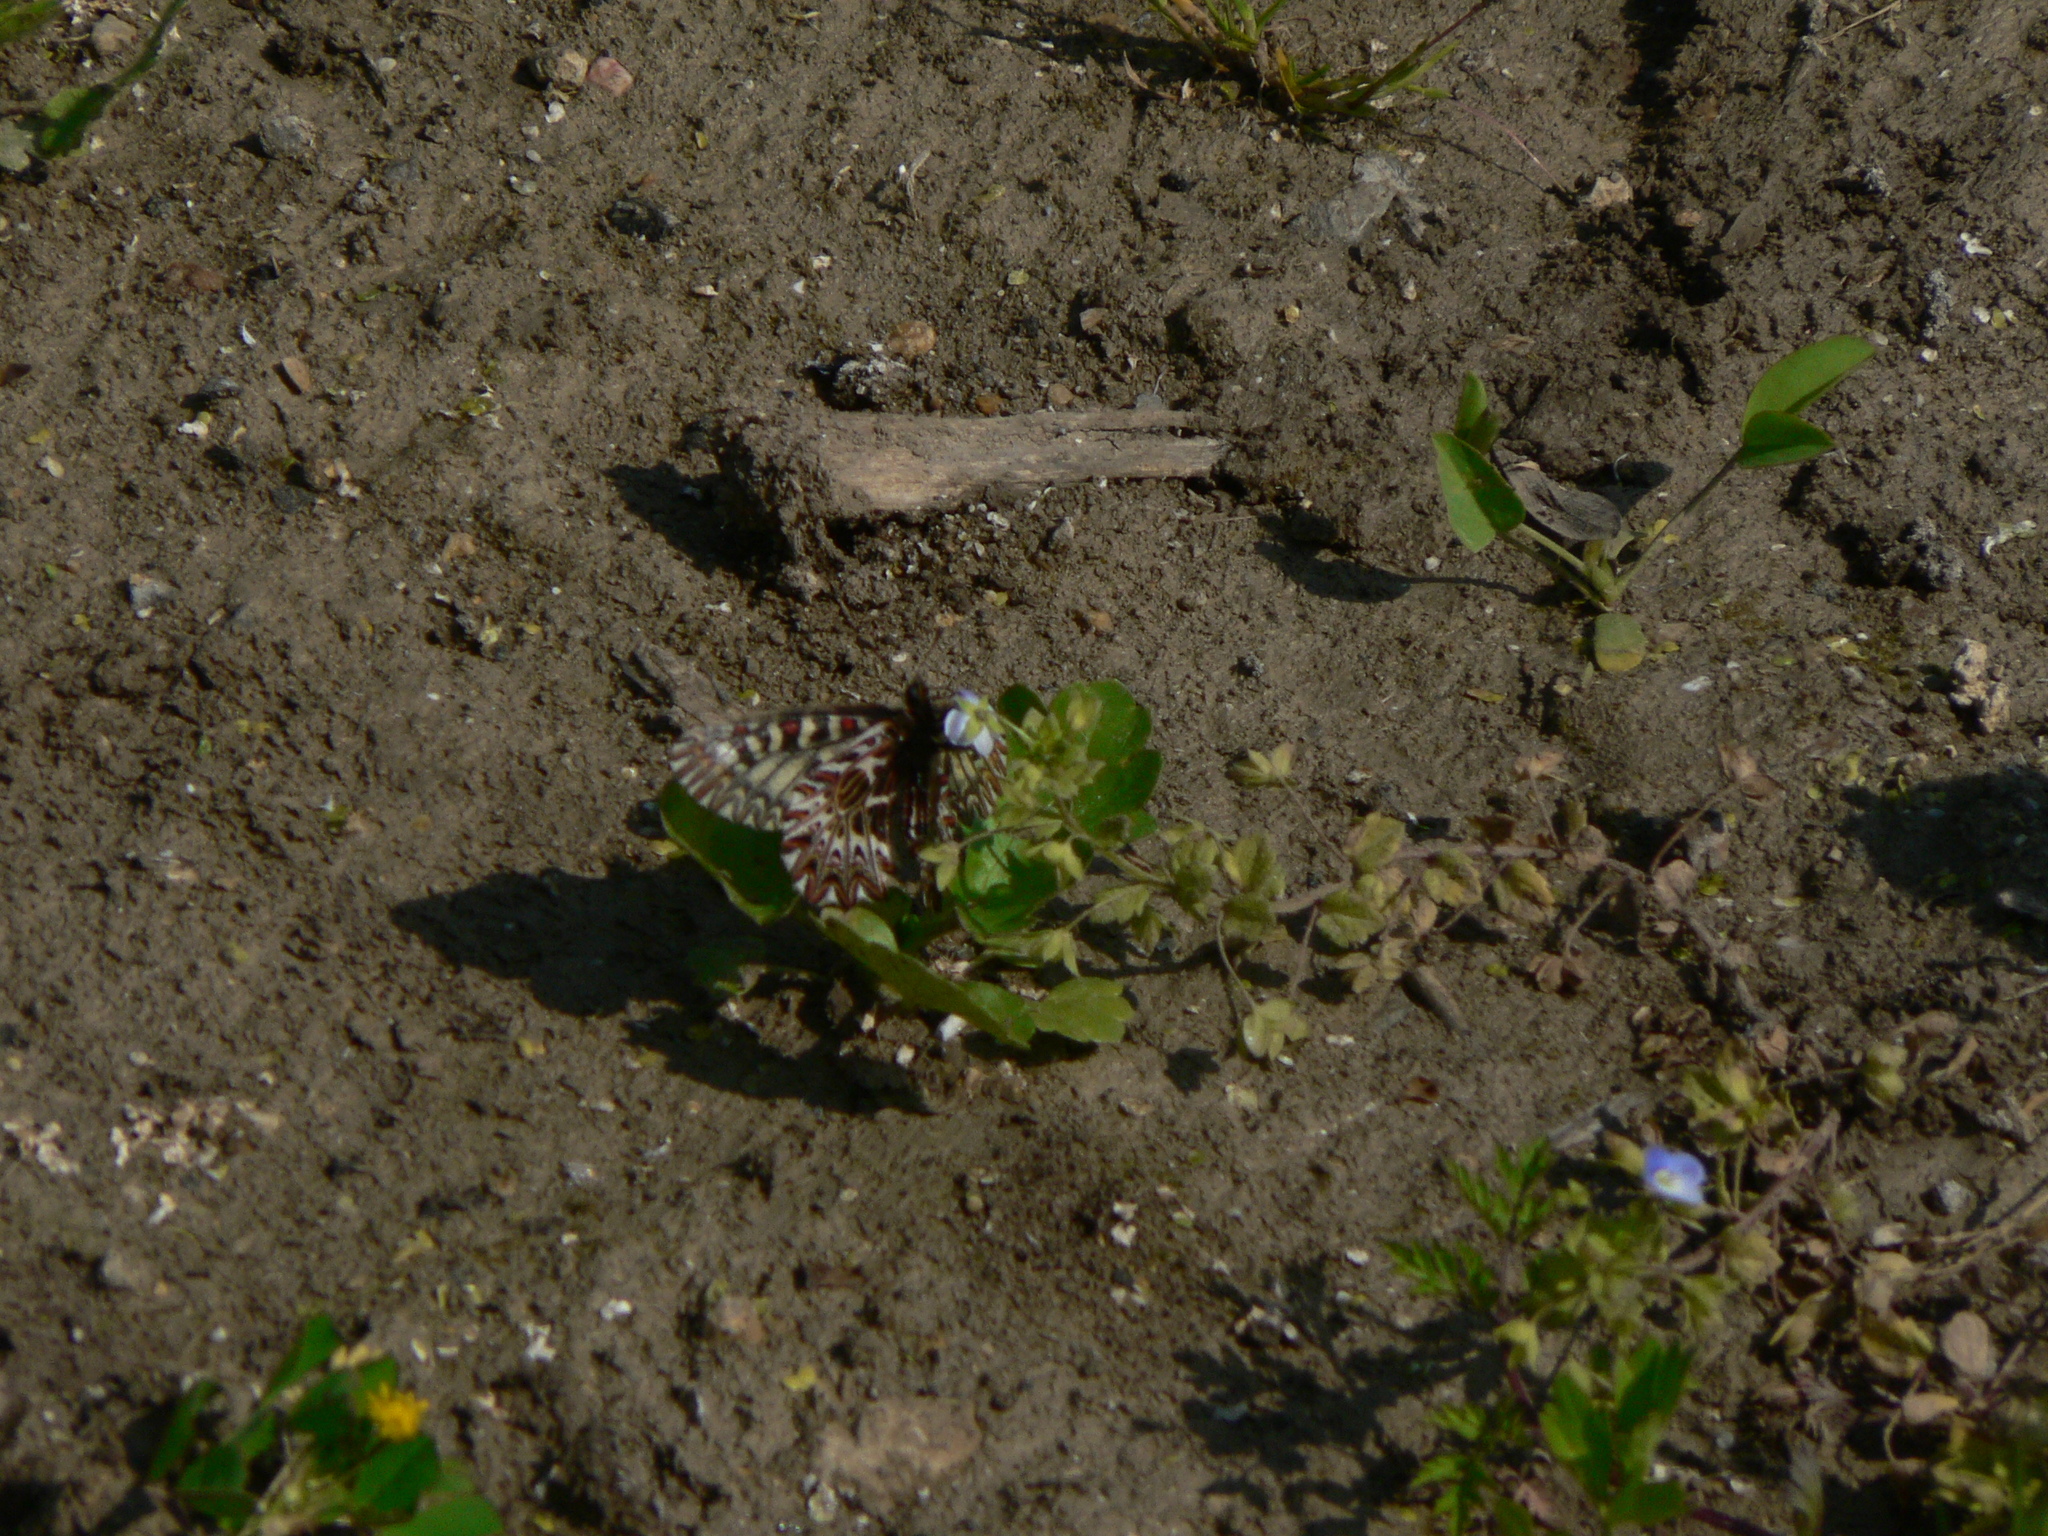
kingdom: Animalia
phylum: Arthropoda
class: Insecta
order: Lepidoptera
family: Papilionidae
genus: Zerynthia
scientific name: Zerynthia polyxena
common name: Southern festoon
